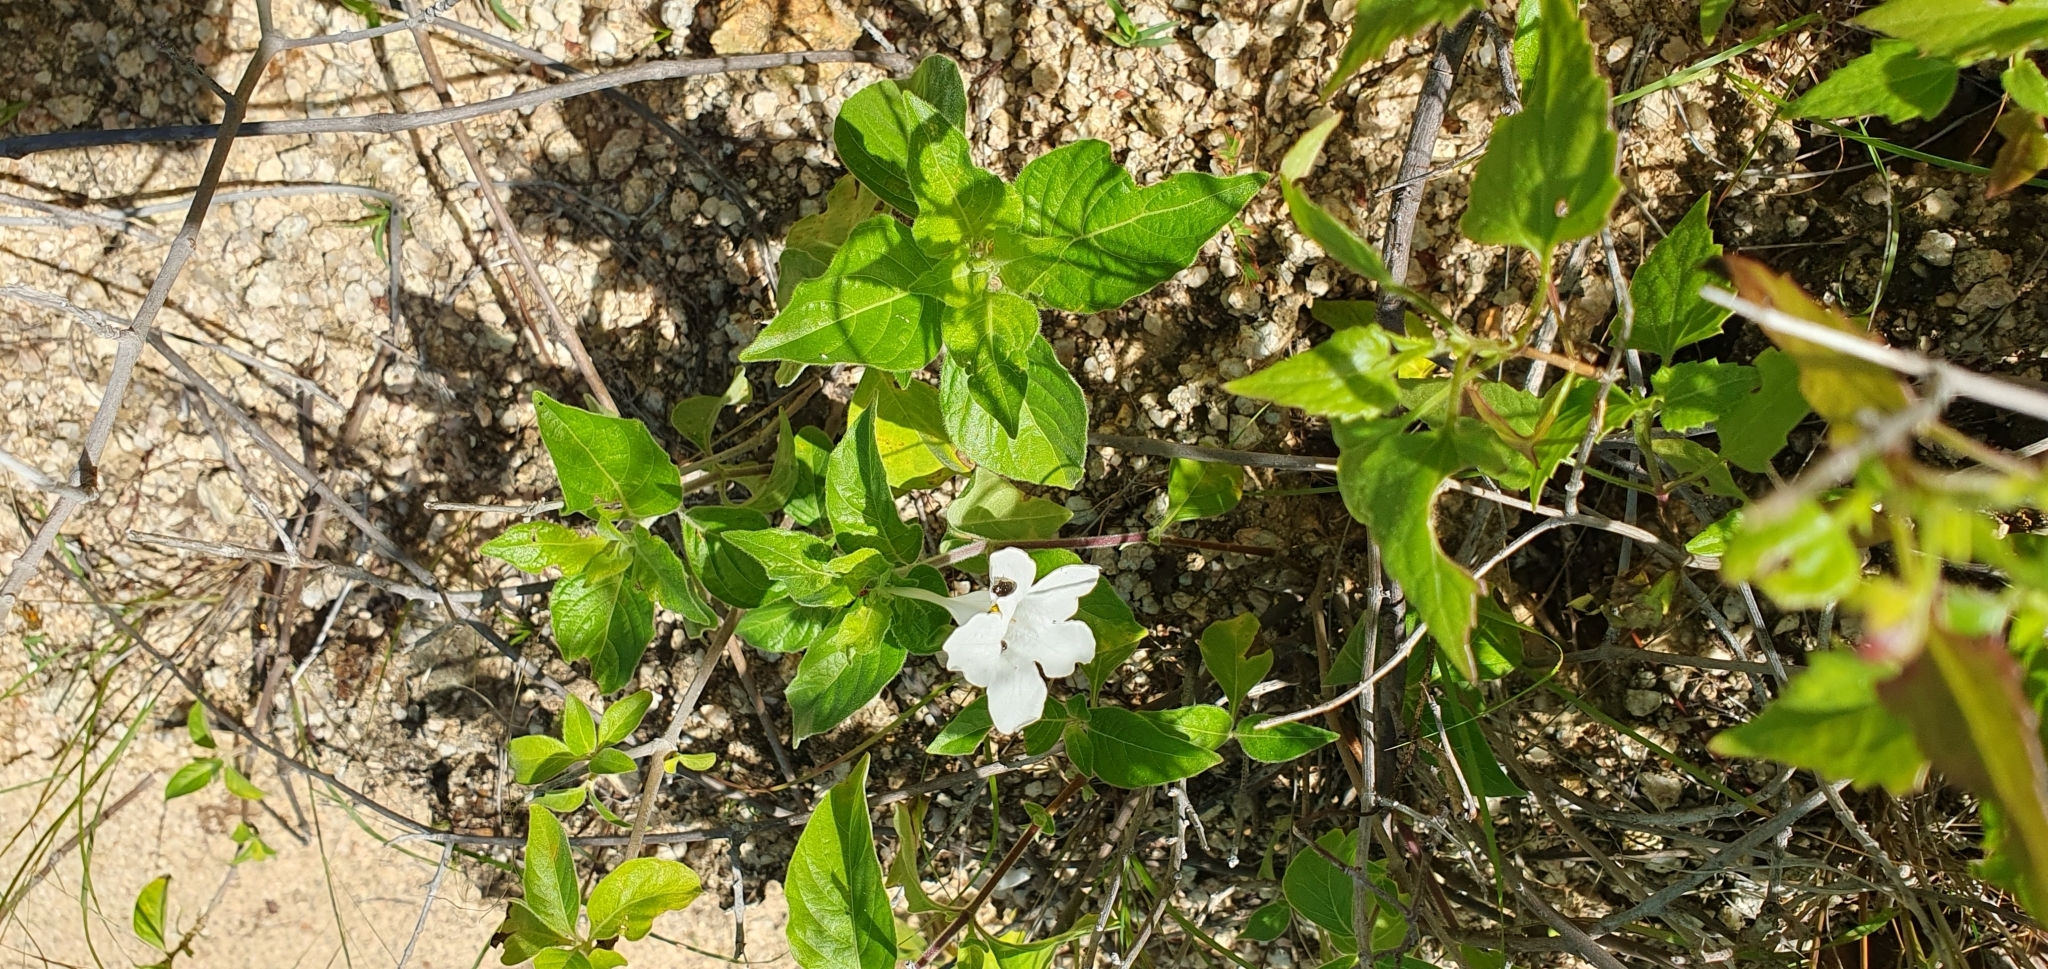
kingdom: Plantae
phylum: Tracheophyta
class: Magnoliopsida
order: Lamiales
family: Acanthaceae
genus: Ruellia
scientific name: Ruellia leucantha
